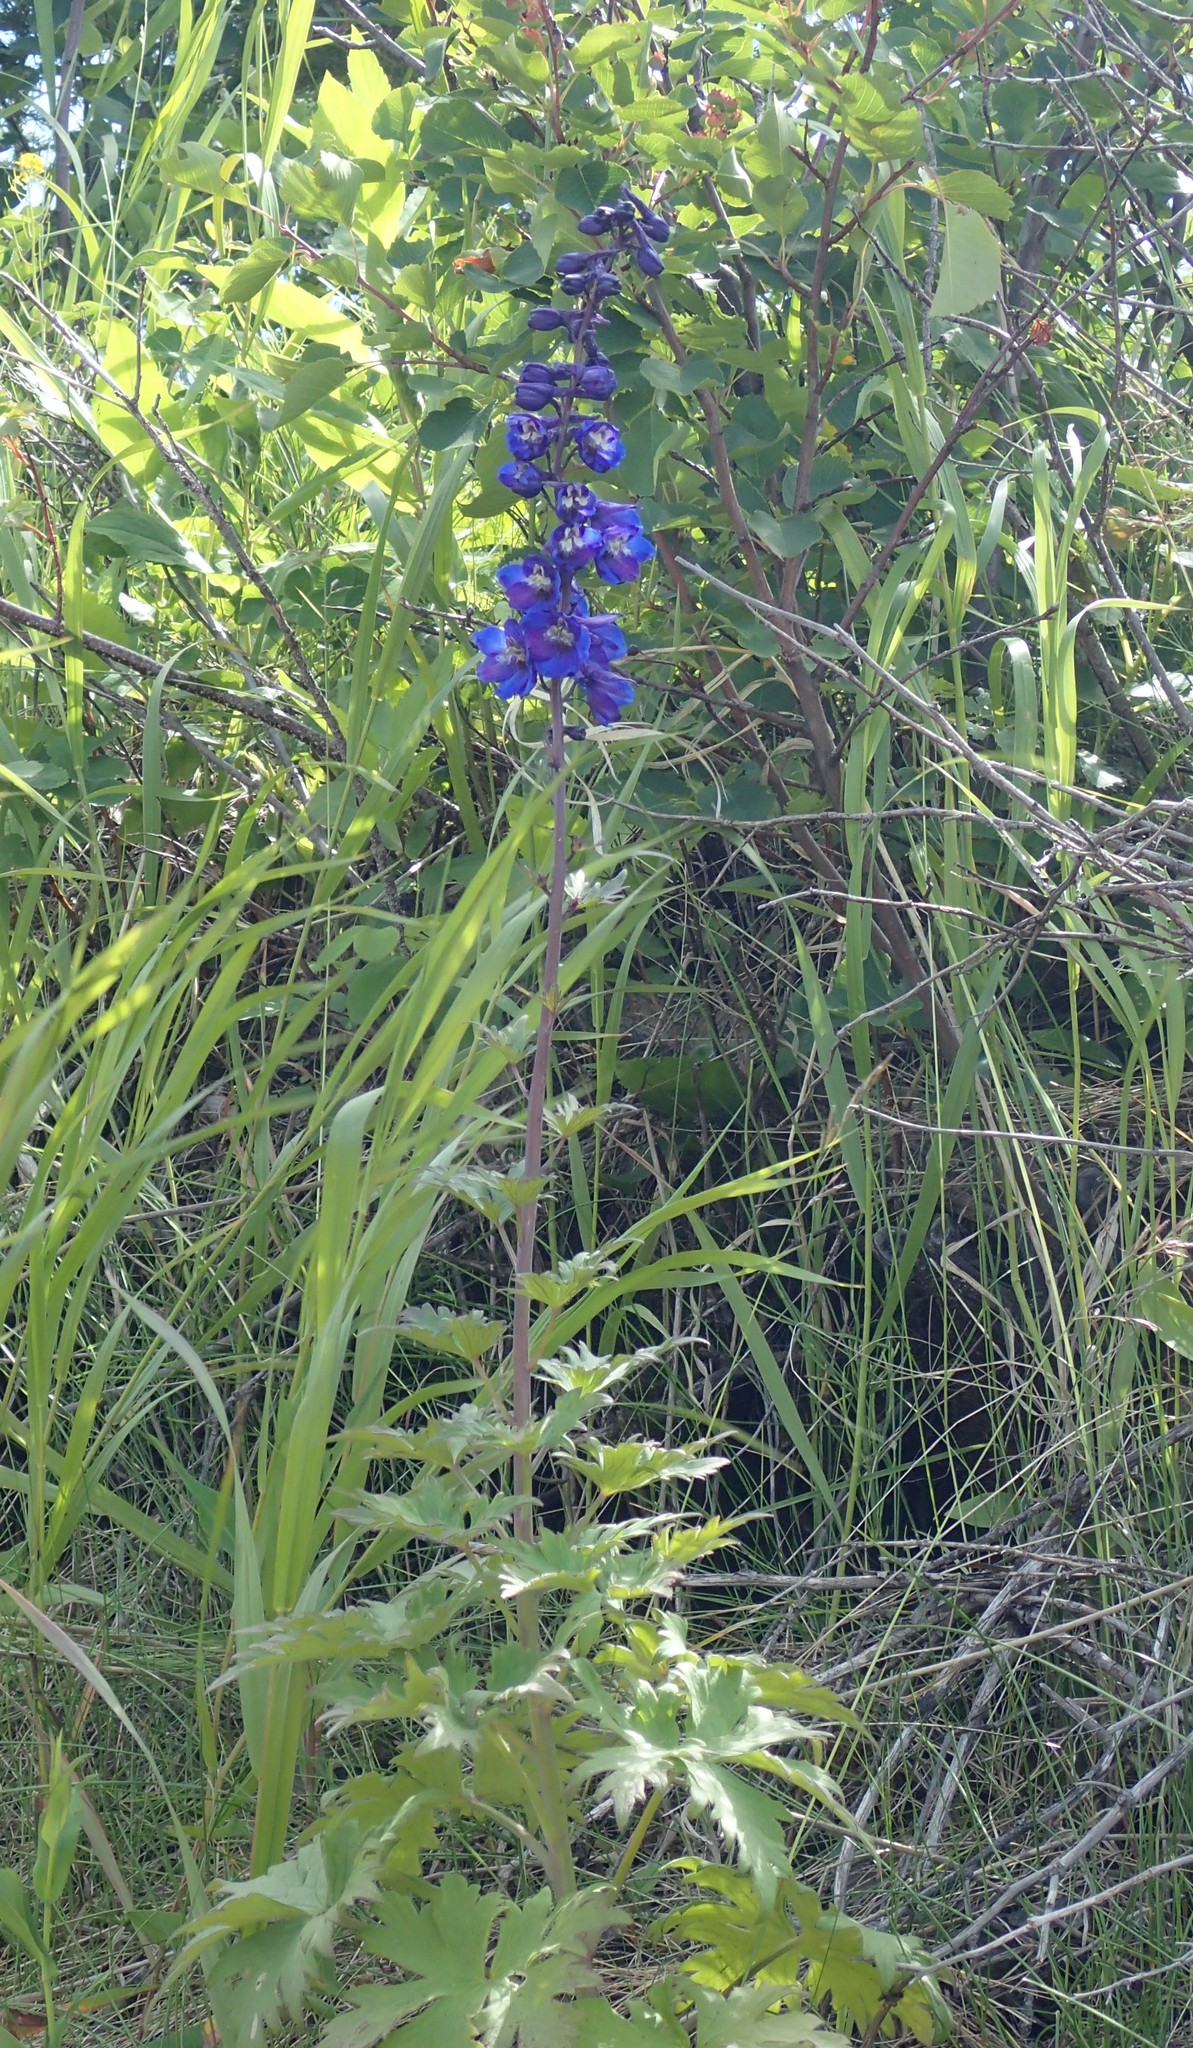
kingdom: Plantae
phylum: Tracheophyta
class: Magnoliopsida
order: Ranunculales
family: Ranunculaceae
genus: Delphinium
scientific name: Delphinium glaucum
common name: Brown's larkspur
